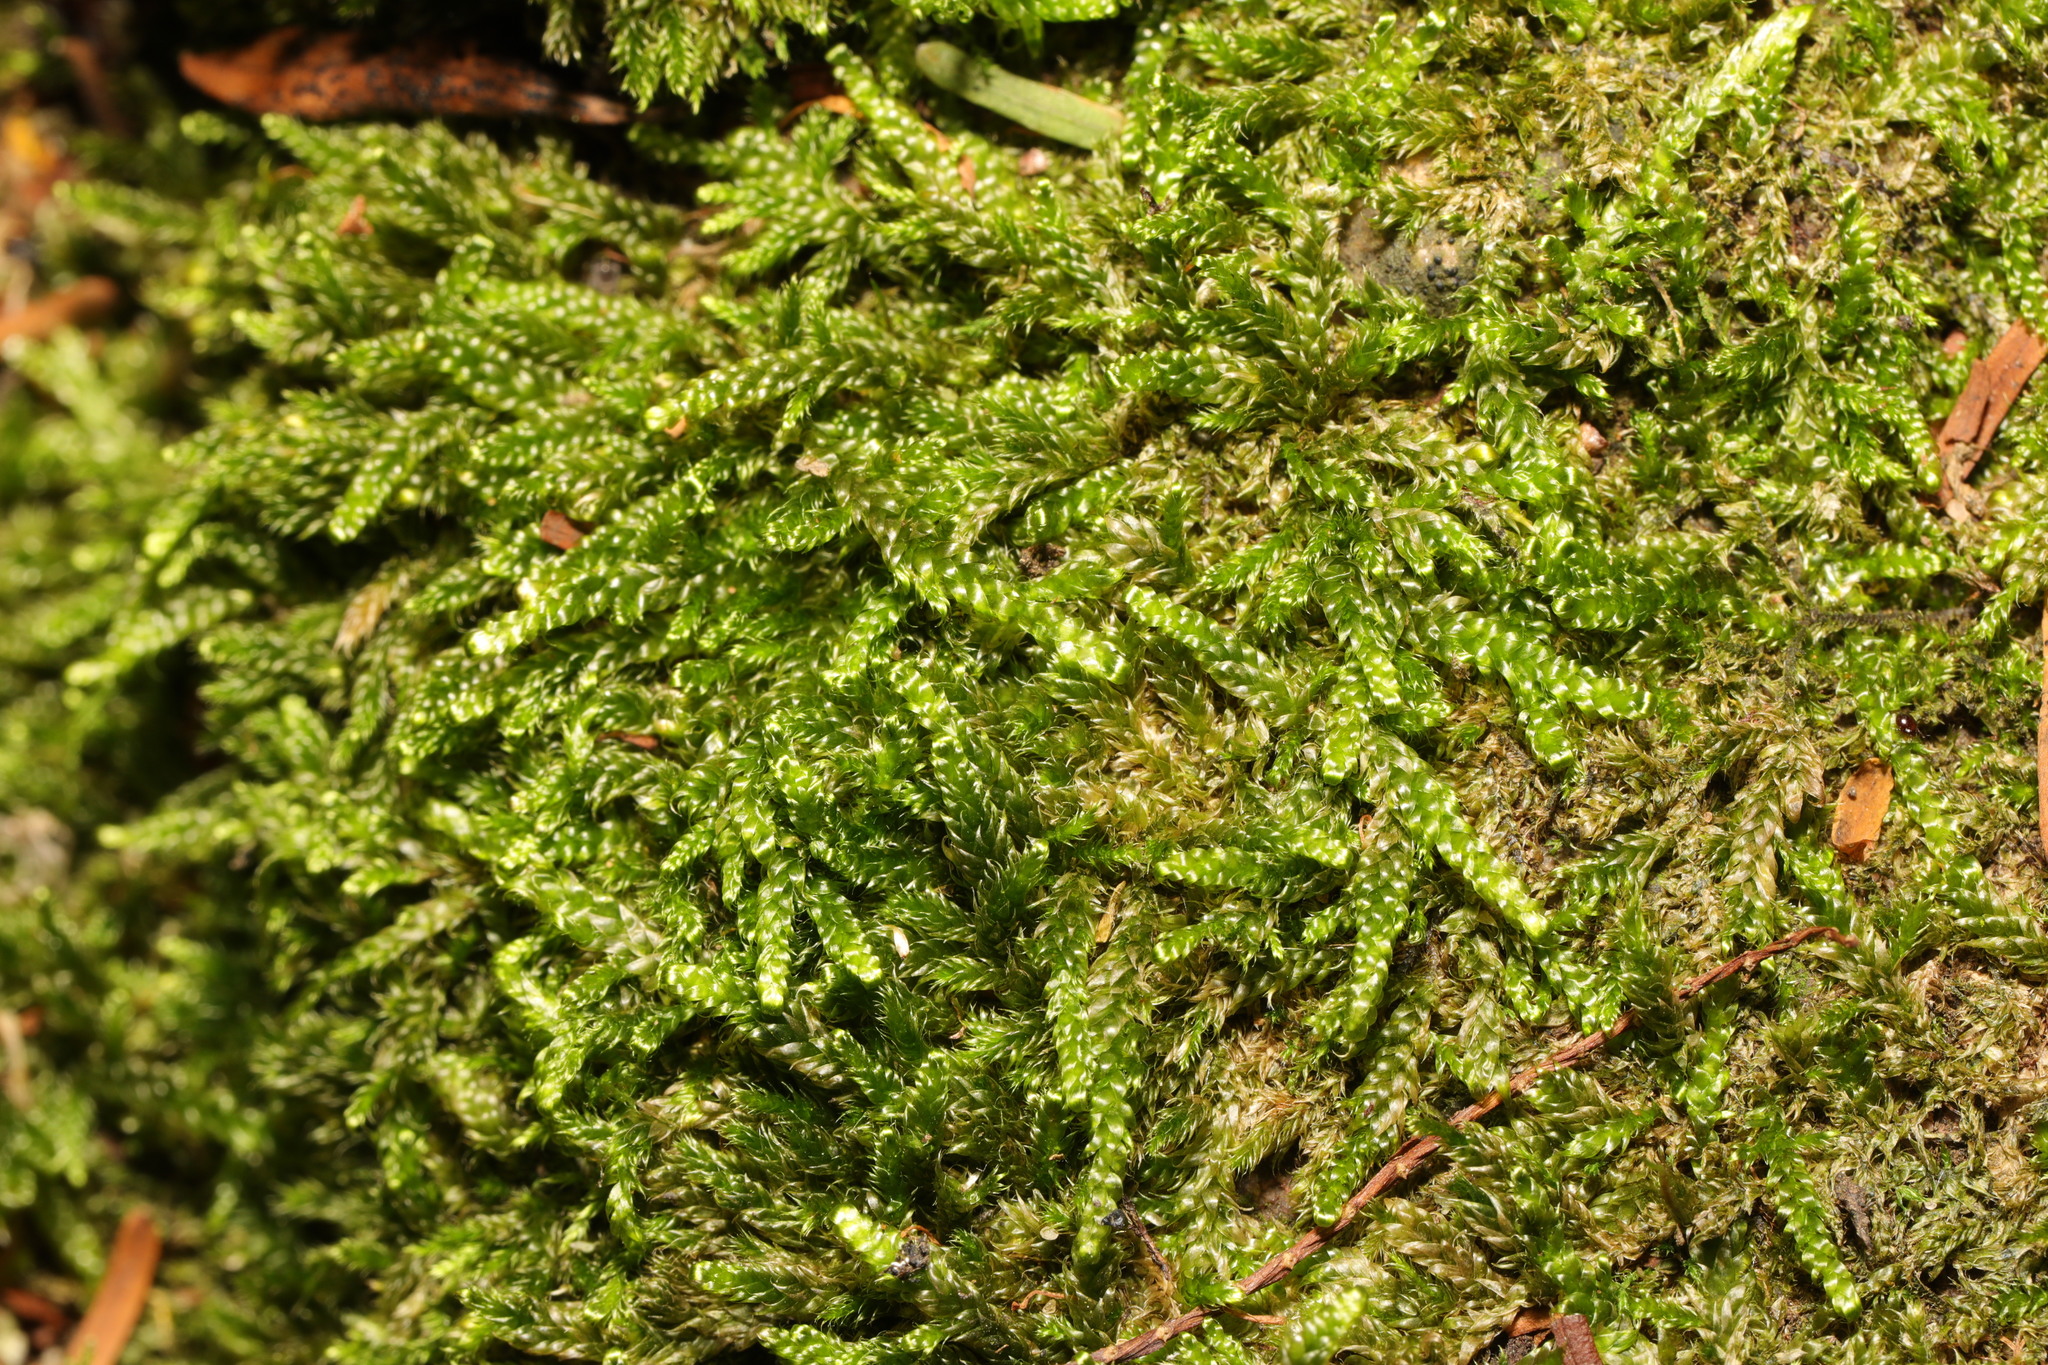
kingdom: Plantae
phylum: Bryophyta
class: Bryopsida
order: Hypnales
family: Hypnaceae
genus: Hypnum
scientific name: Hypnum cupressiforme
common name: Cypress-leaved plait-moss
